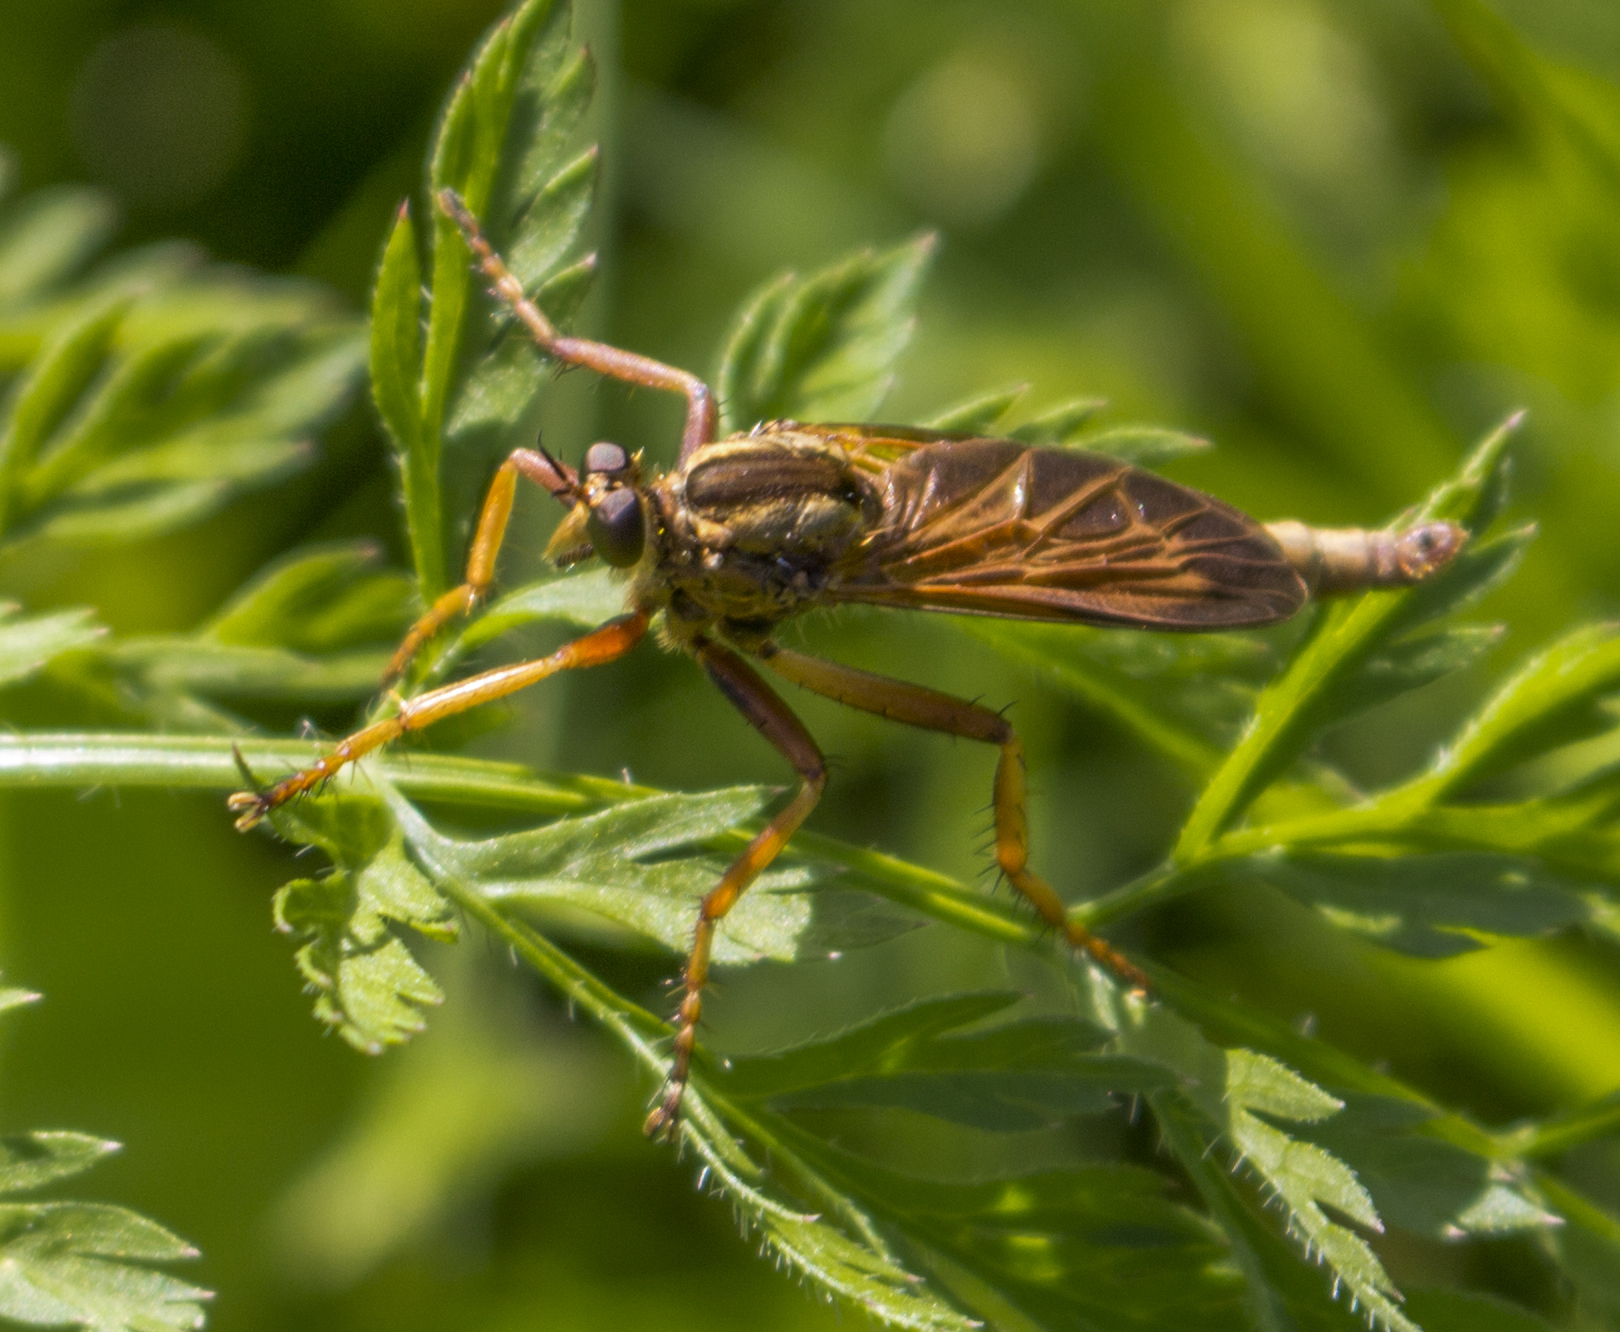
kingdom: Animalia
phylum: Arthropoda
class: Insecta
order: Diptera
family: Asilidae
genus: Asilus
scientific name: Asilus sericeus
